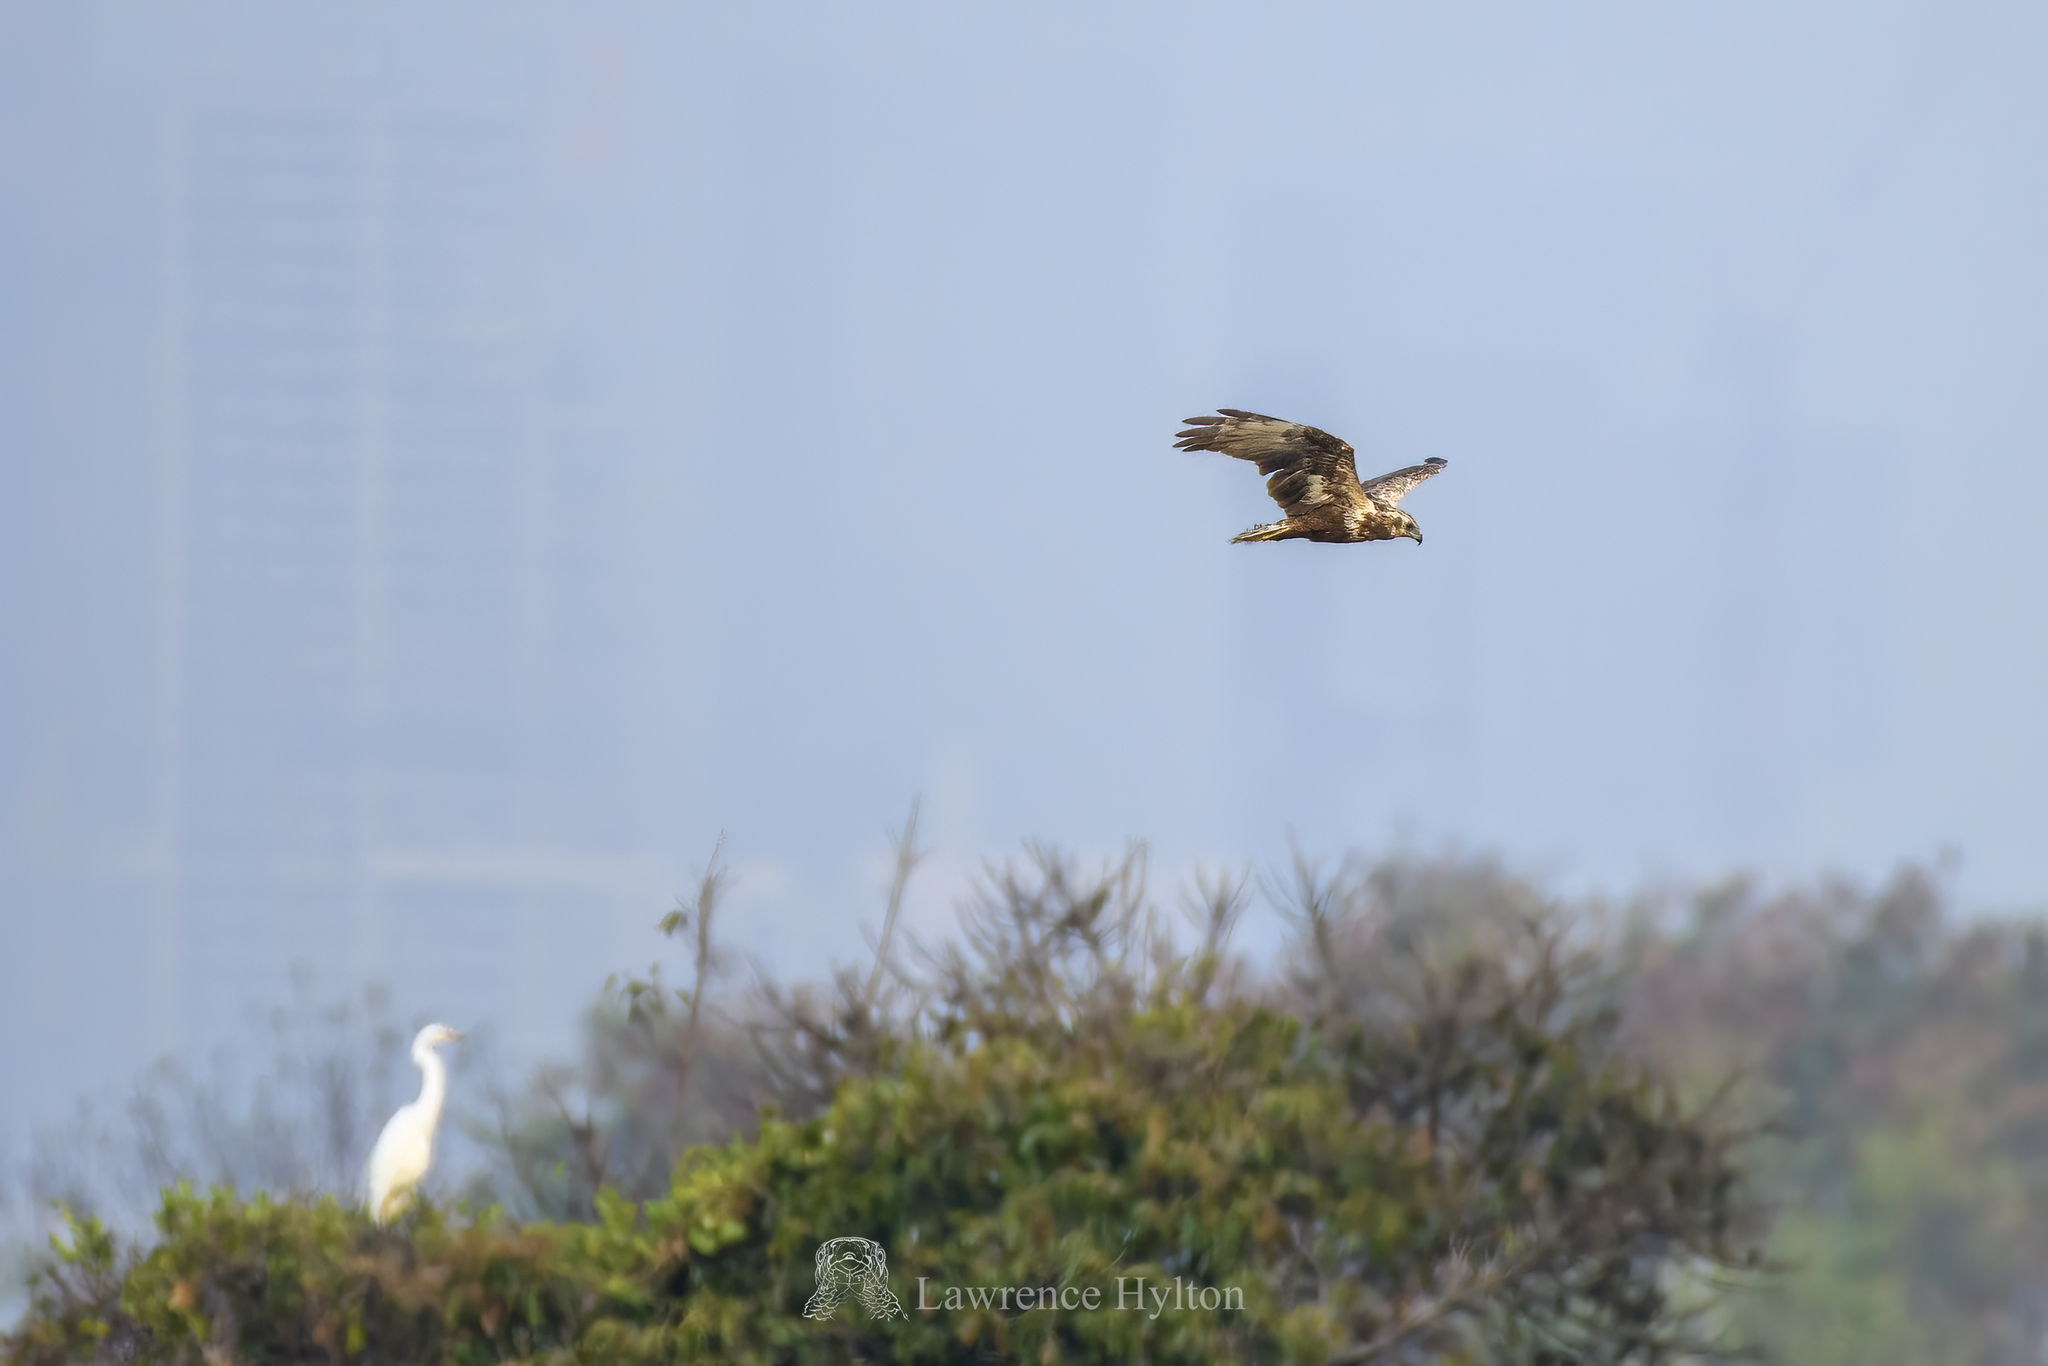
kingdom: Animalia
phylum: Chordata
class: Aves
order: Accipitriformes
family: Accipitridae
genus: Circus
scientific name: Circus spilonotus
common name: Eastern marsh-harrier
